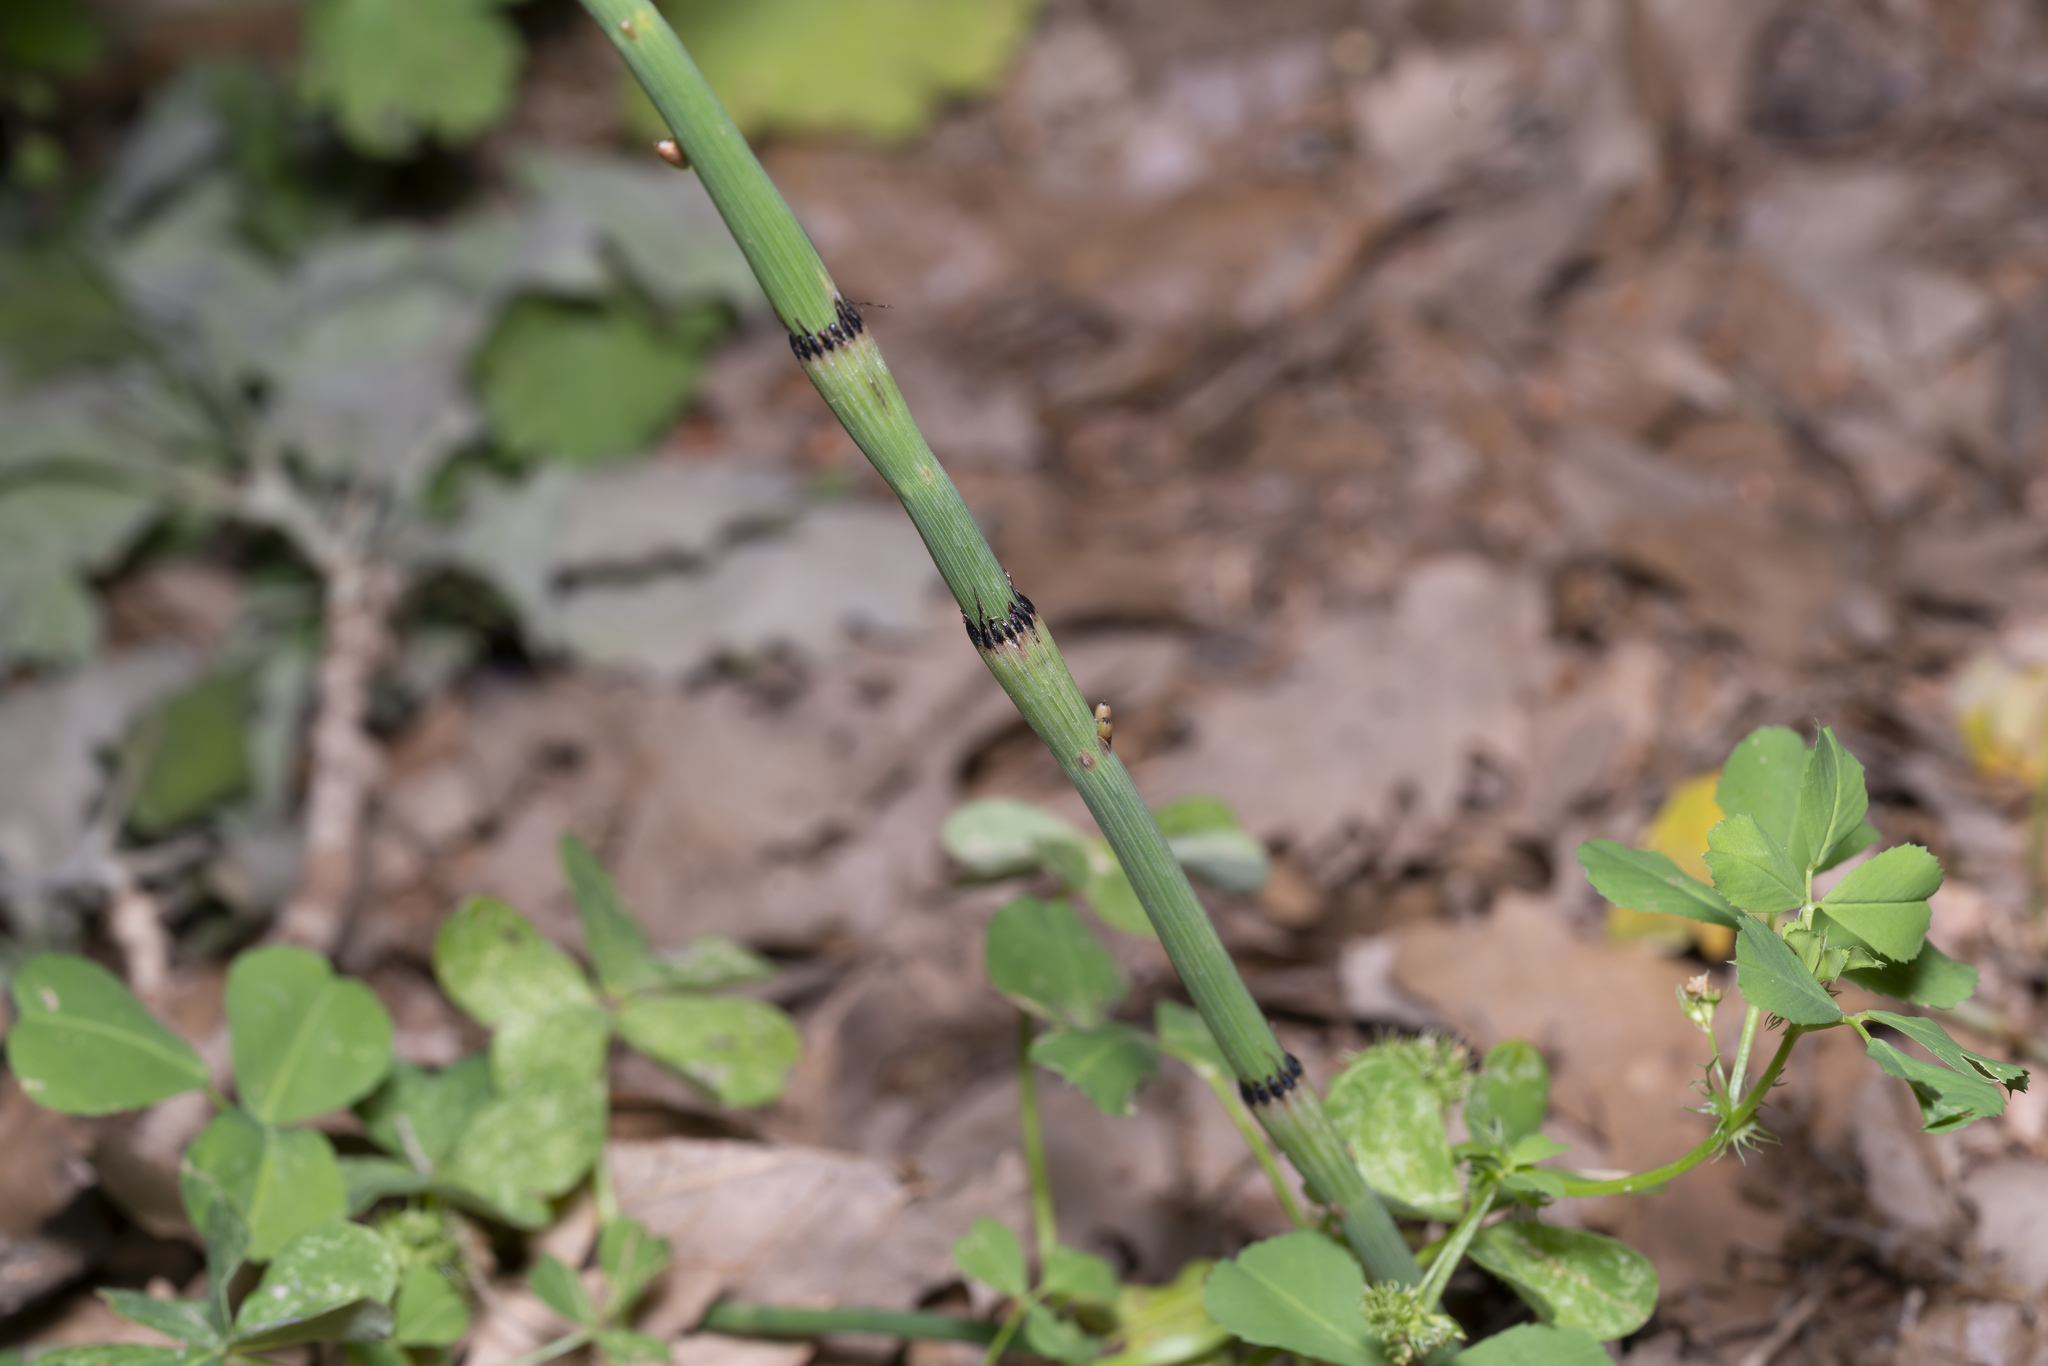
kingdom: Plantae
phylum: Tracheophyta
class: Polypodiopsida
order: Equisetales
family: Equisetaceae
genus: Equisetum
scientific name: Equisetum ramosissimum
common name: Branched horsetail
